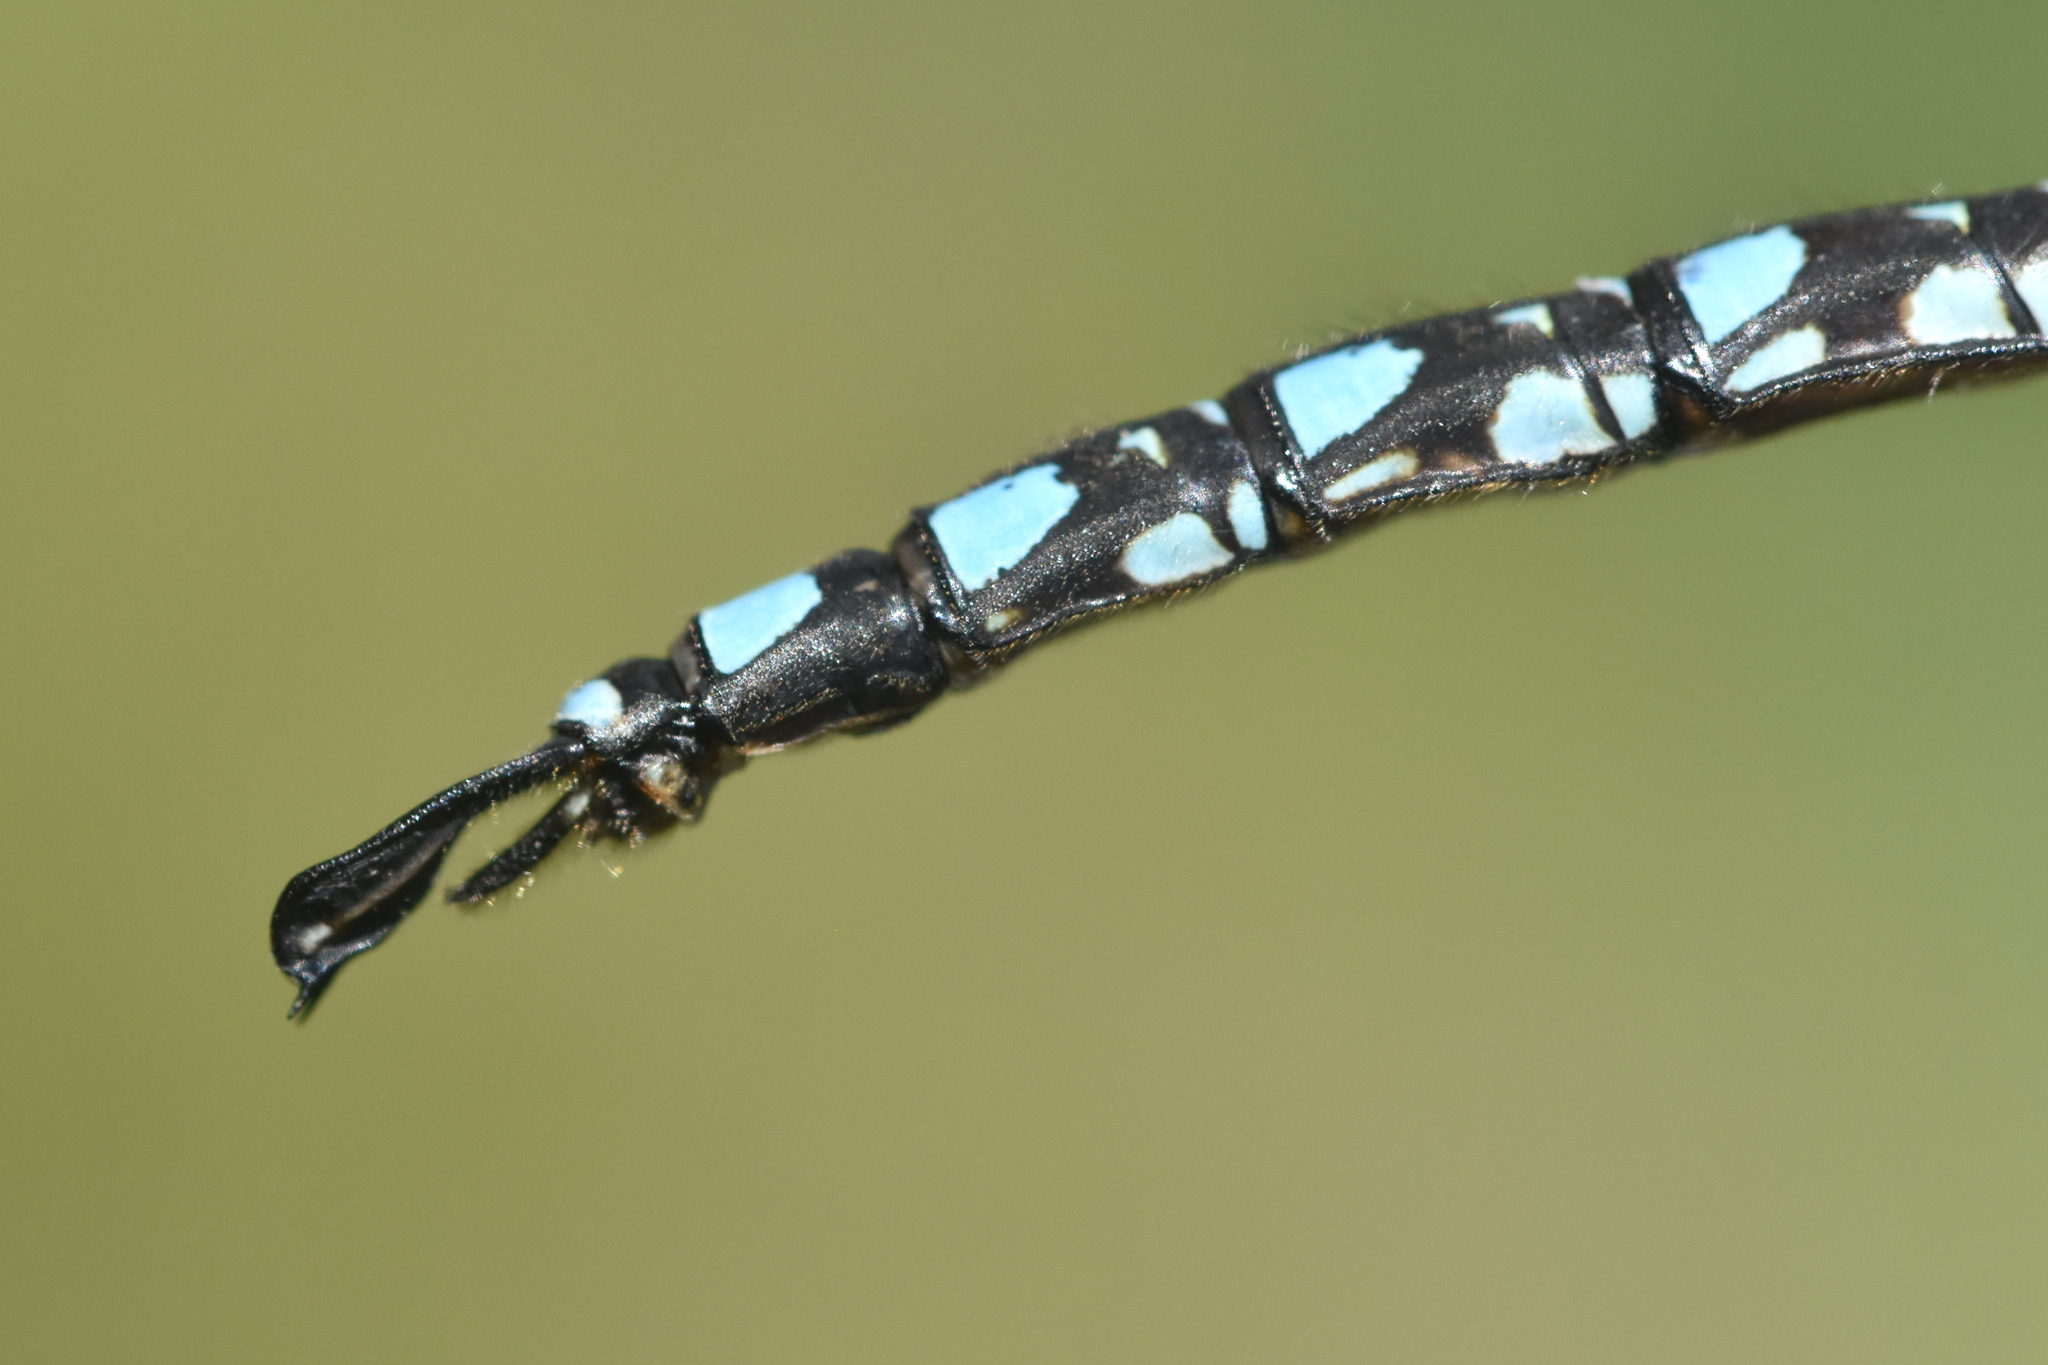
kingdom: Animalia
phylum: Arthropoda
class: Insecta
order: Odonata
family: Aeshnidae
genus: Aeshna
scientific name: Aeshna palmata
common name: Paddle-tailed darner
